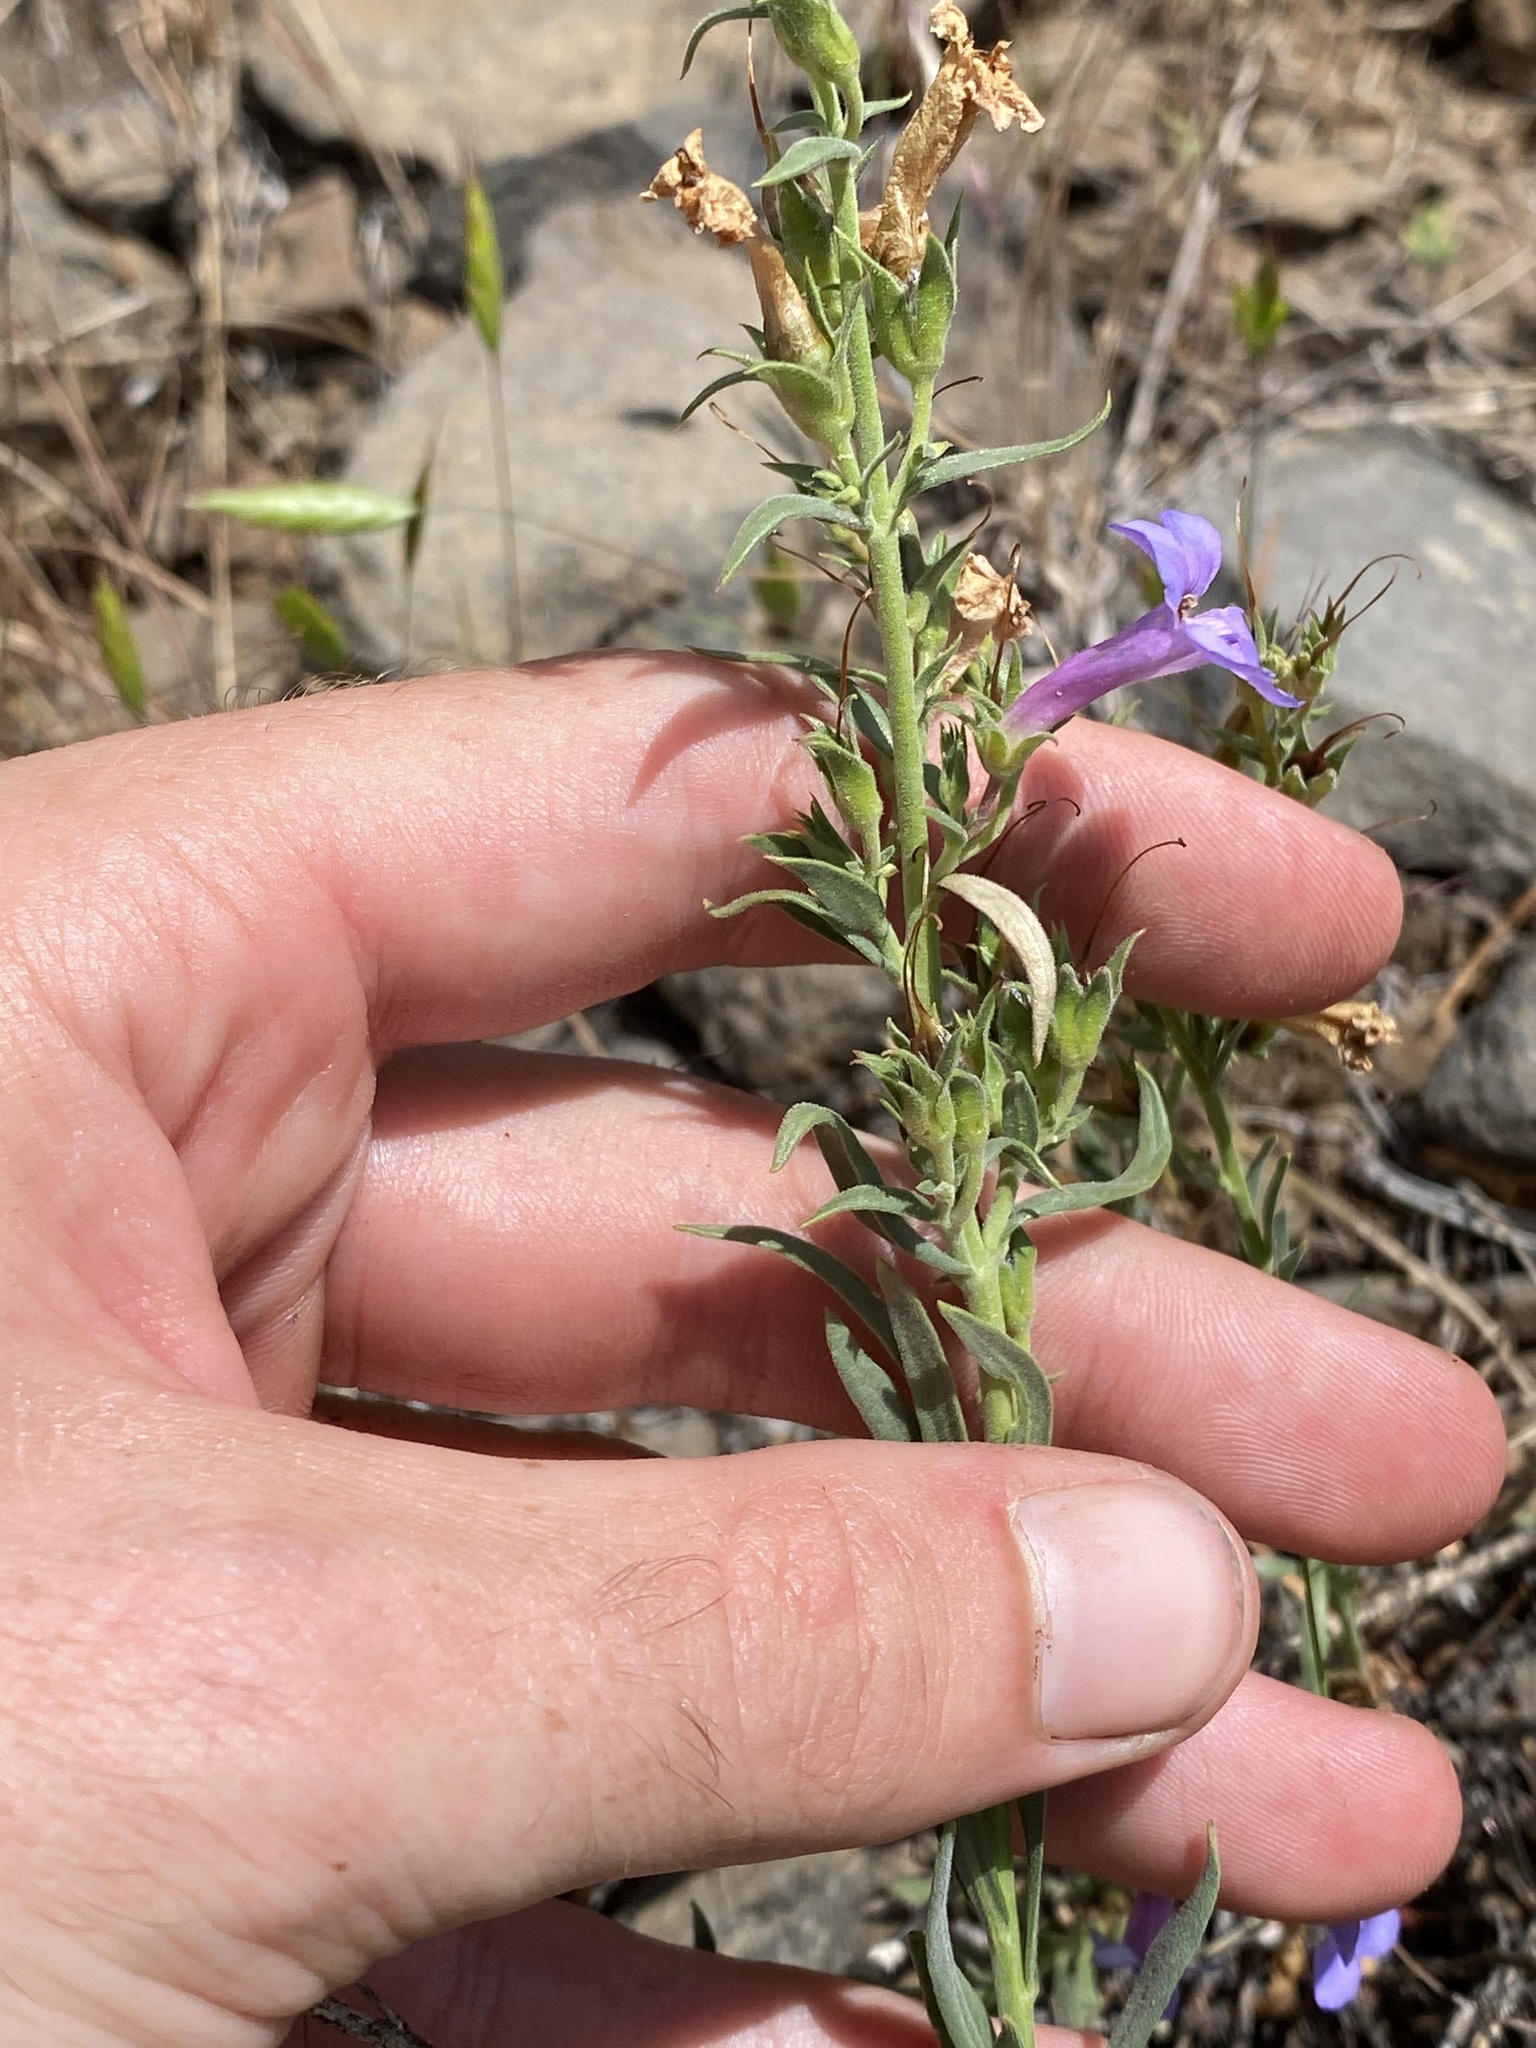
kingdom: Plantae
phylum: Tracheophyta
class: Magnoliopsida
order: Lamiales
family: Plantaginaceae
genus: Penstemon
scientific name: Penstemon gairdneri
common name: Gairdner's penstemon
